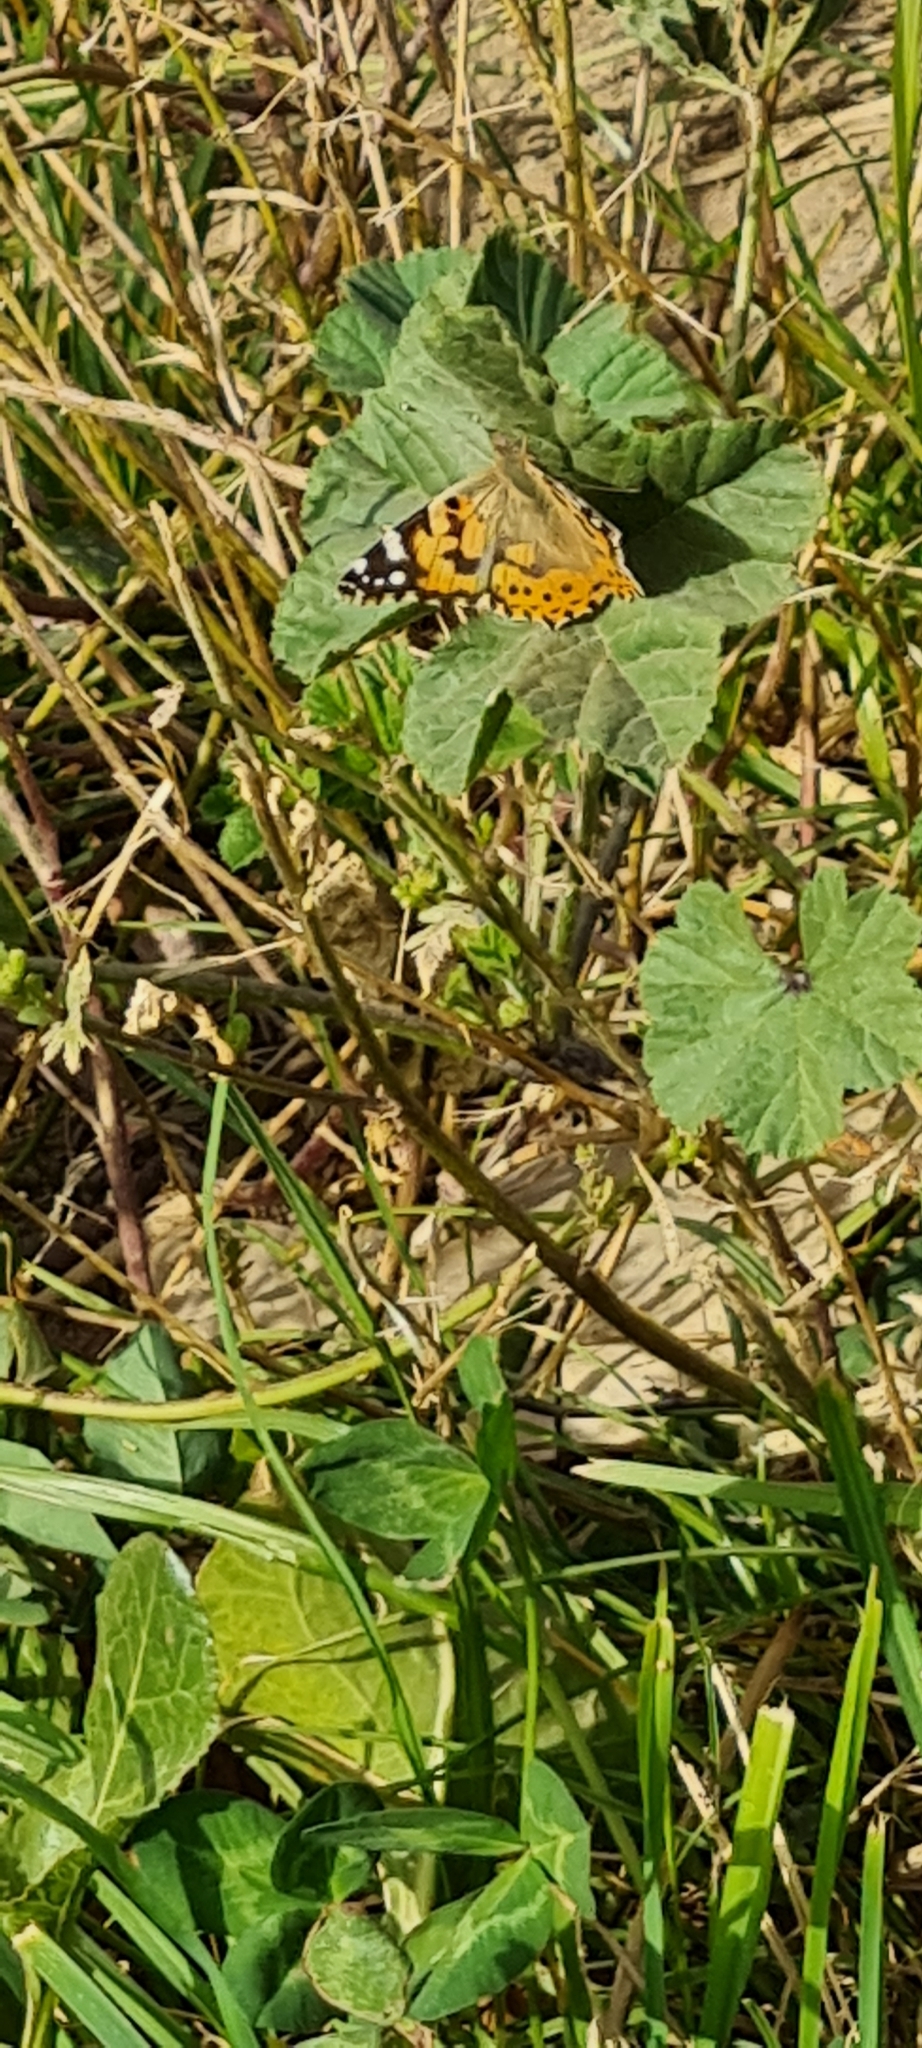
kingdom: Animalia
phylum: Arthropoda
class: Insecta
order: Lepidoptera
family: Nymphalidae
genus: Vanessa
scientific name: Vanessa cardui
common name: Painted lady
